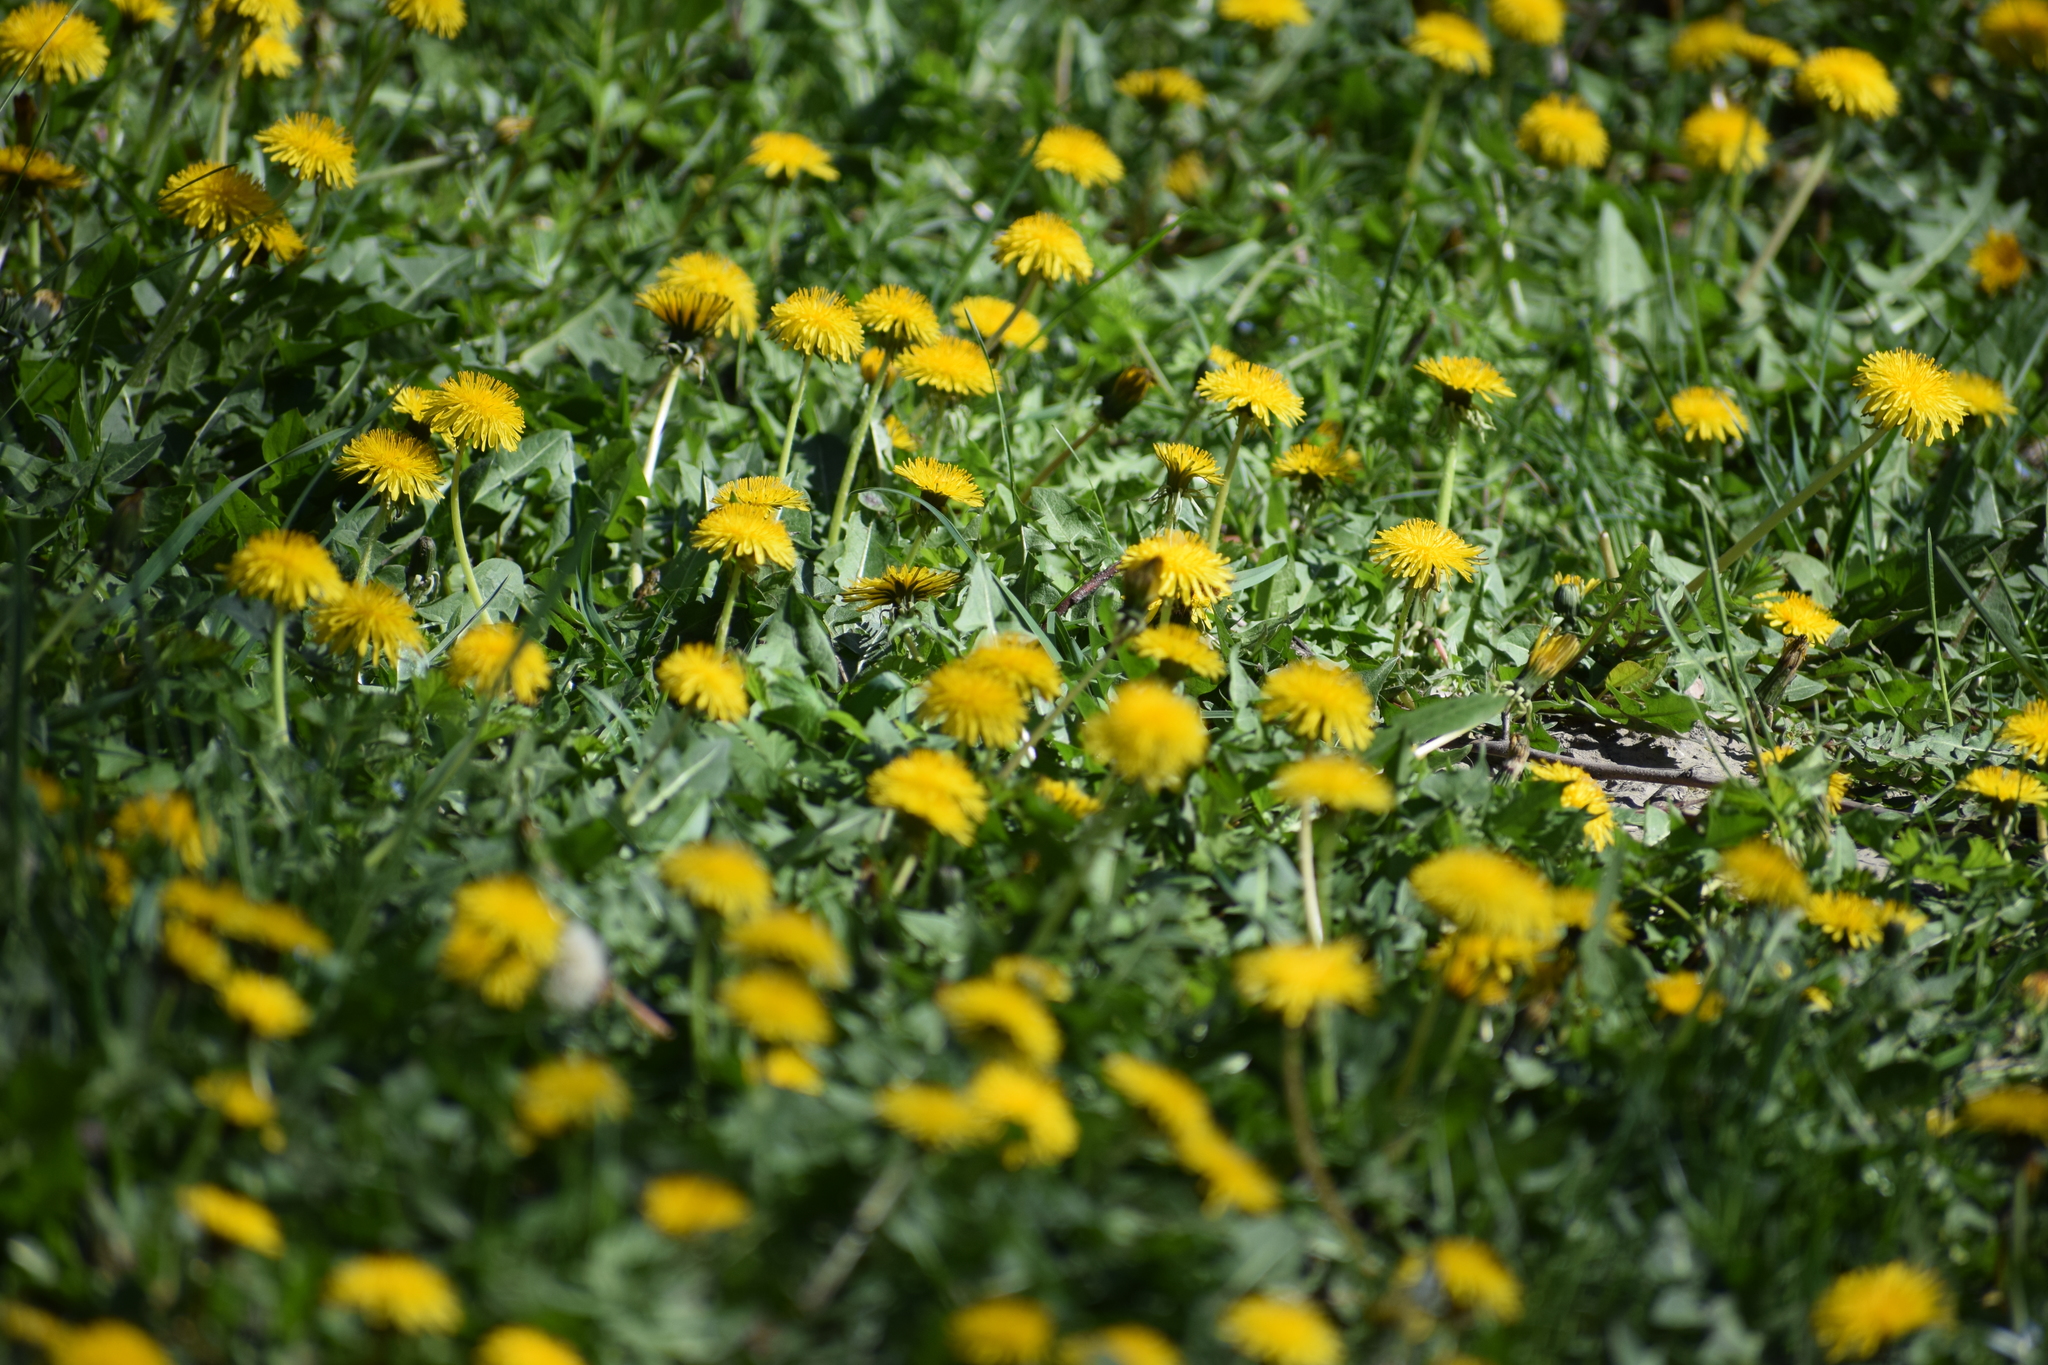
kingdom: Plantae
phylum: Tracheophyta
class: Magnoliopsida
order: Asterales
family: Asteraceae
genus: Taraxacum
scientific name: Taraxacum officinale
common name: Common dandelion
